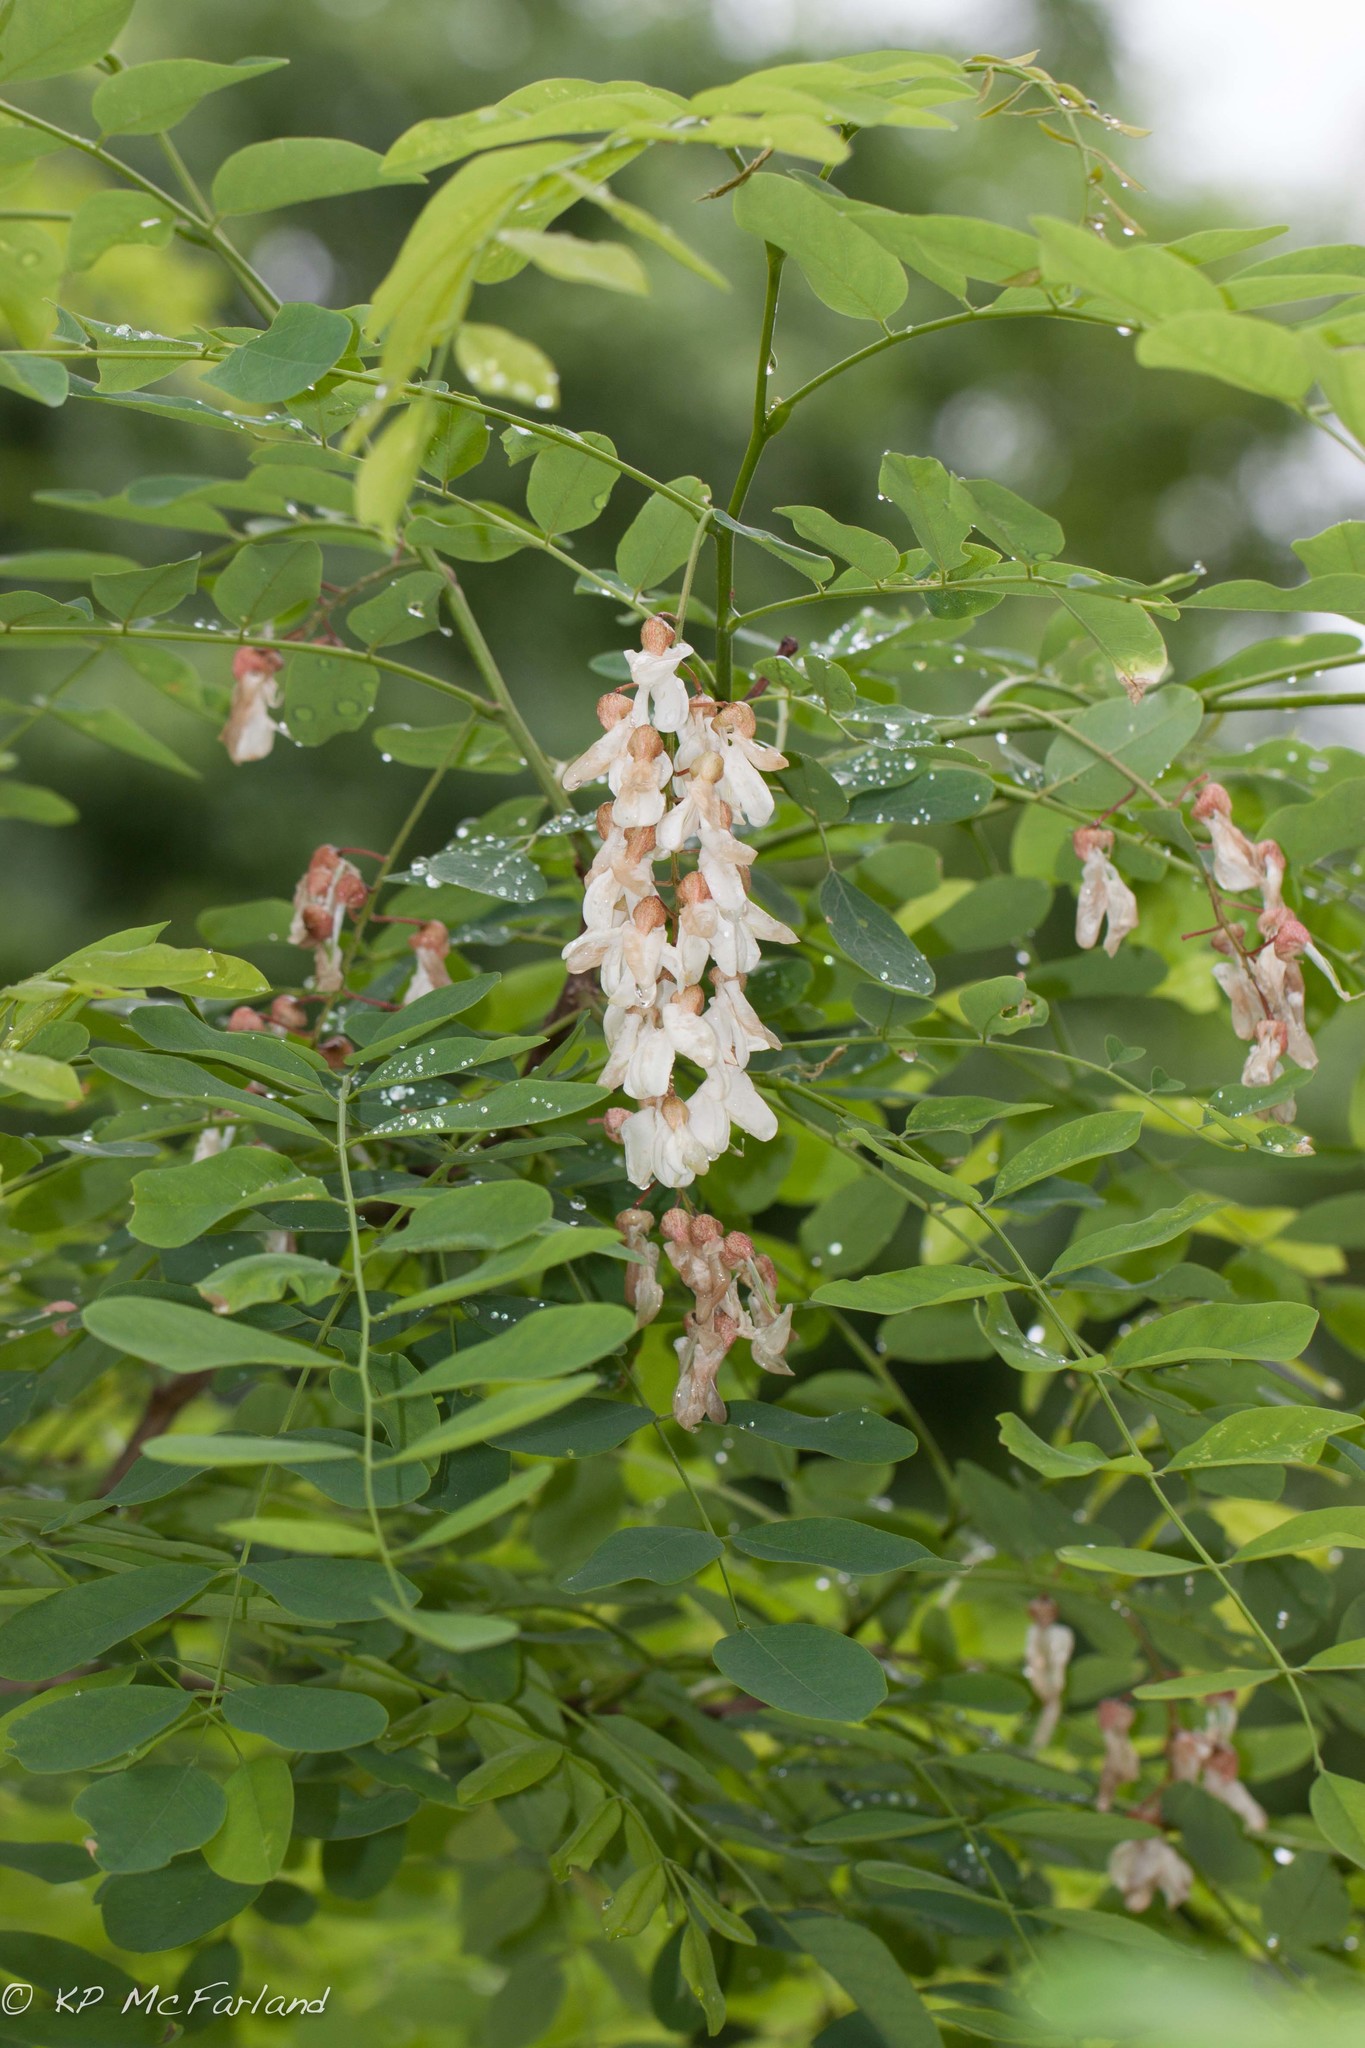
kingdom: Plantae
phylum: Tracheophyta
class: Magnoliopsida
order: Fabales
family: Fabaceae
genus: Robinia
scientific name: Robinia pseudoacacia
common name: Black locust
